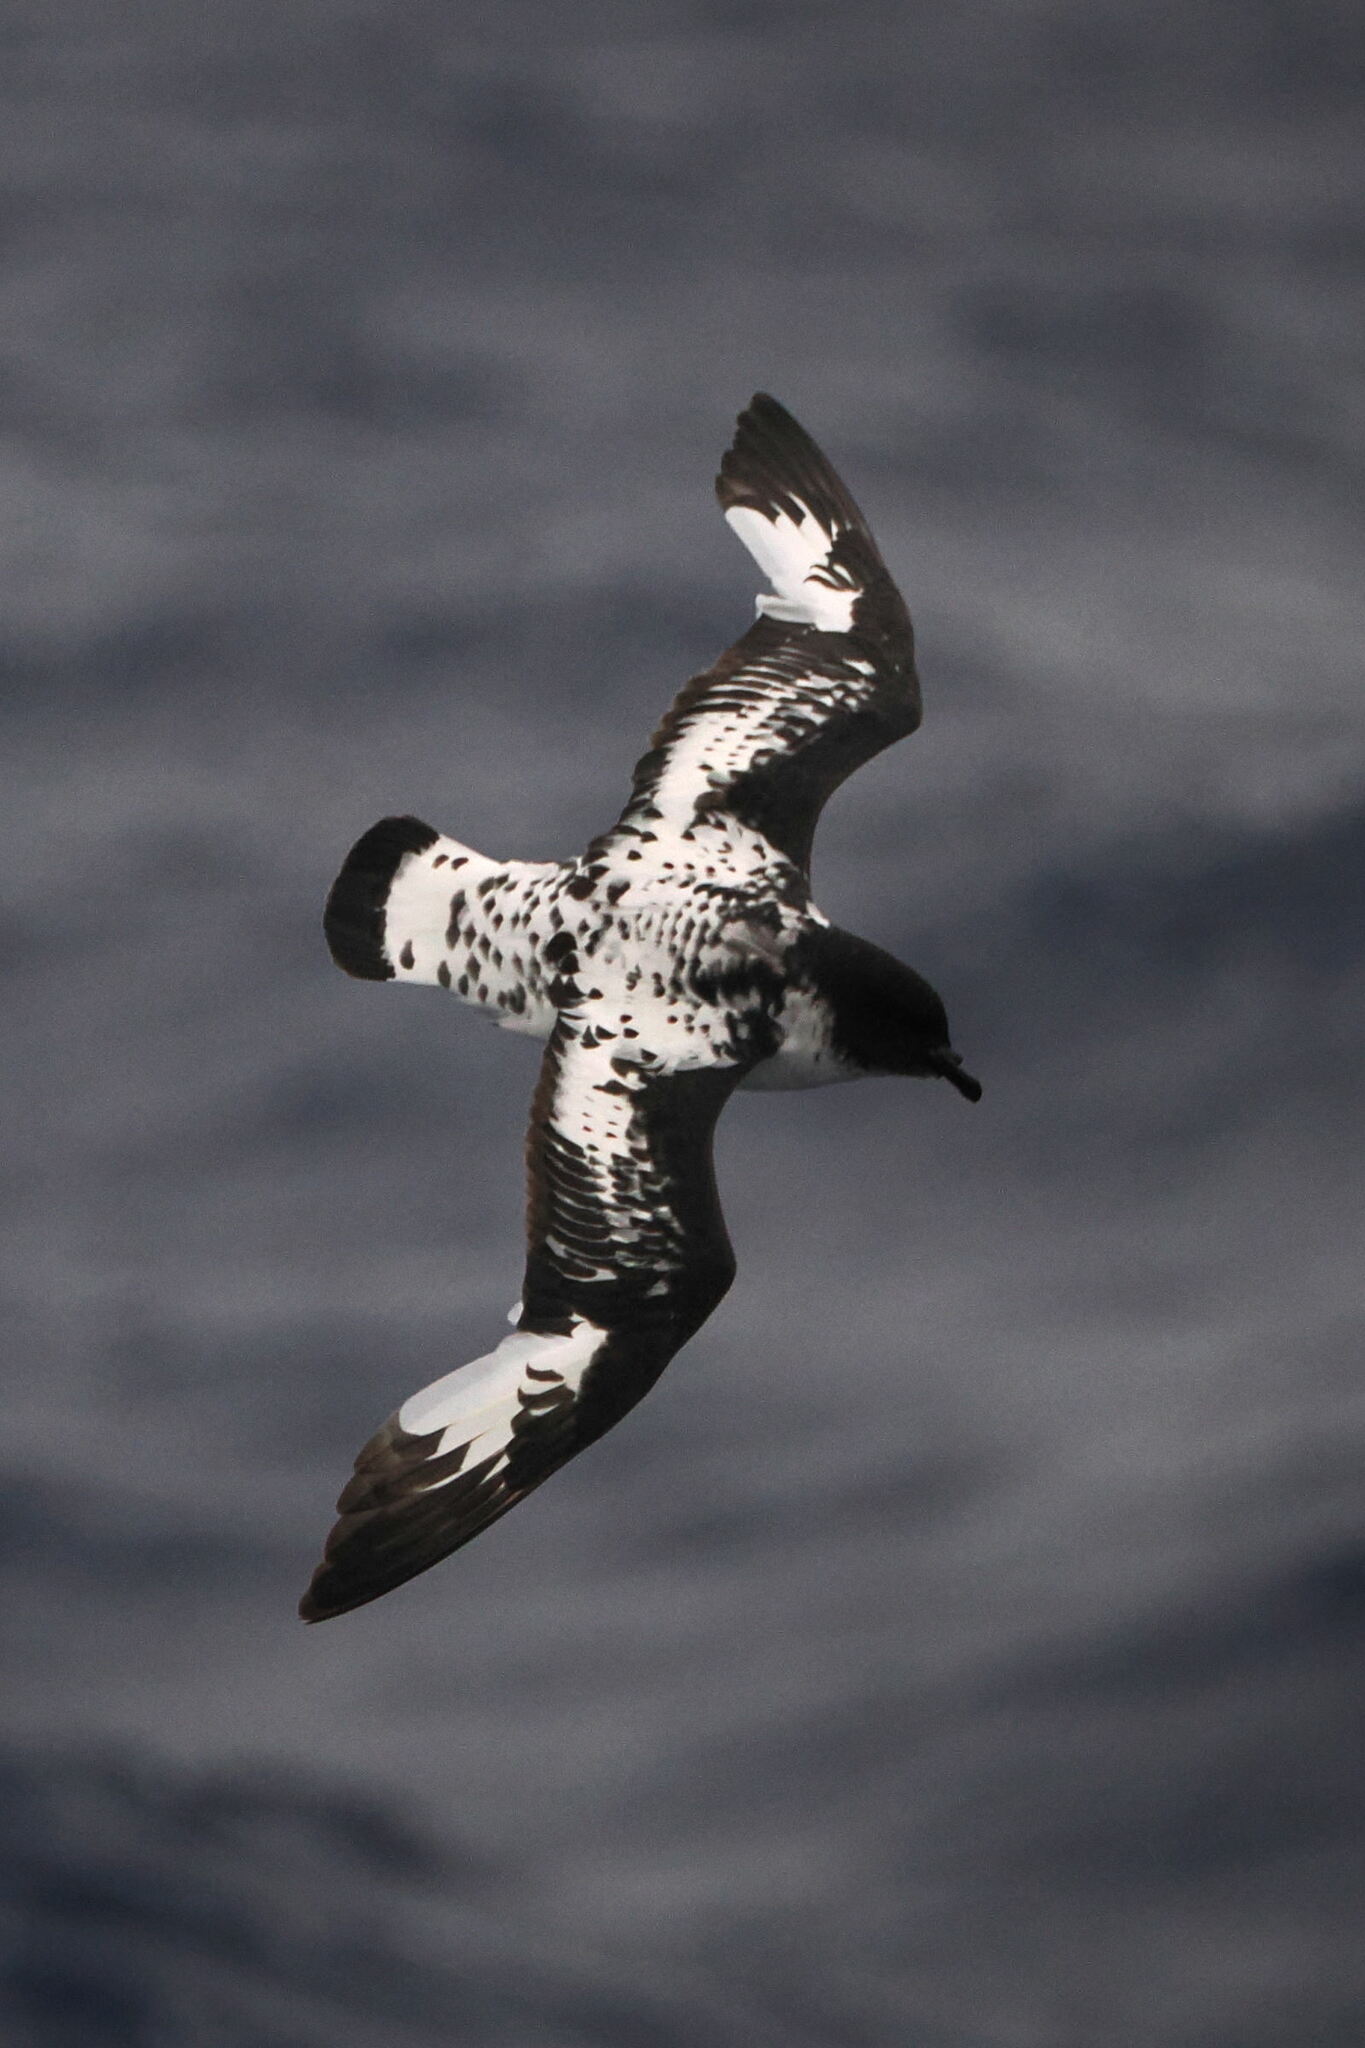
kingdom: Animalia
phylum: Chordata
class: Aves
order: Procellariiformes
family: Procellariidae
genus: Daption
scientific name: Daption capense
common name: Cape petrel
